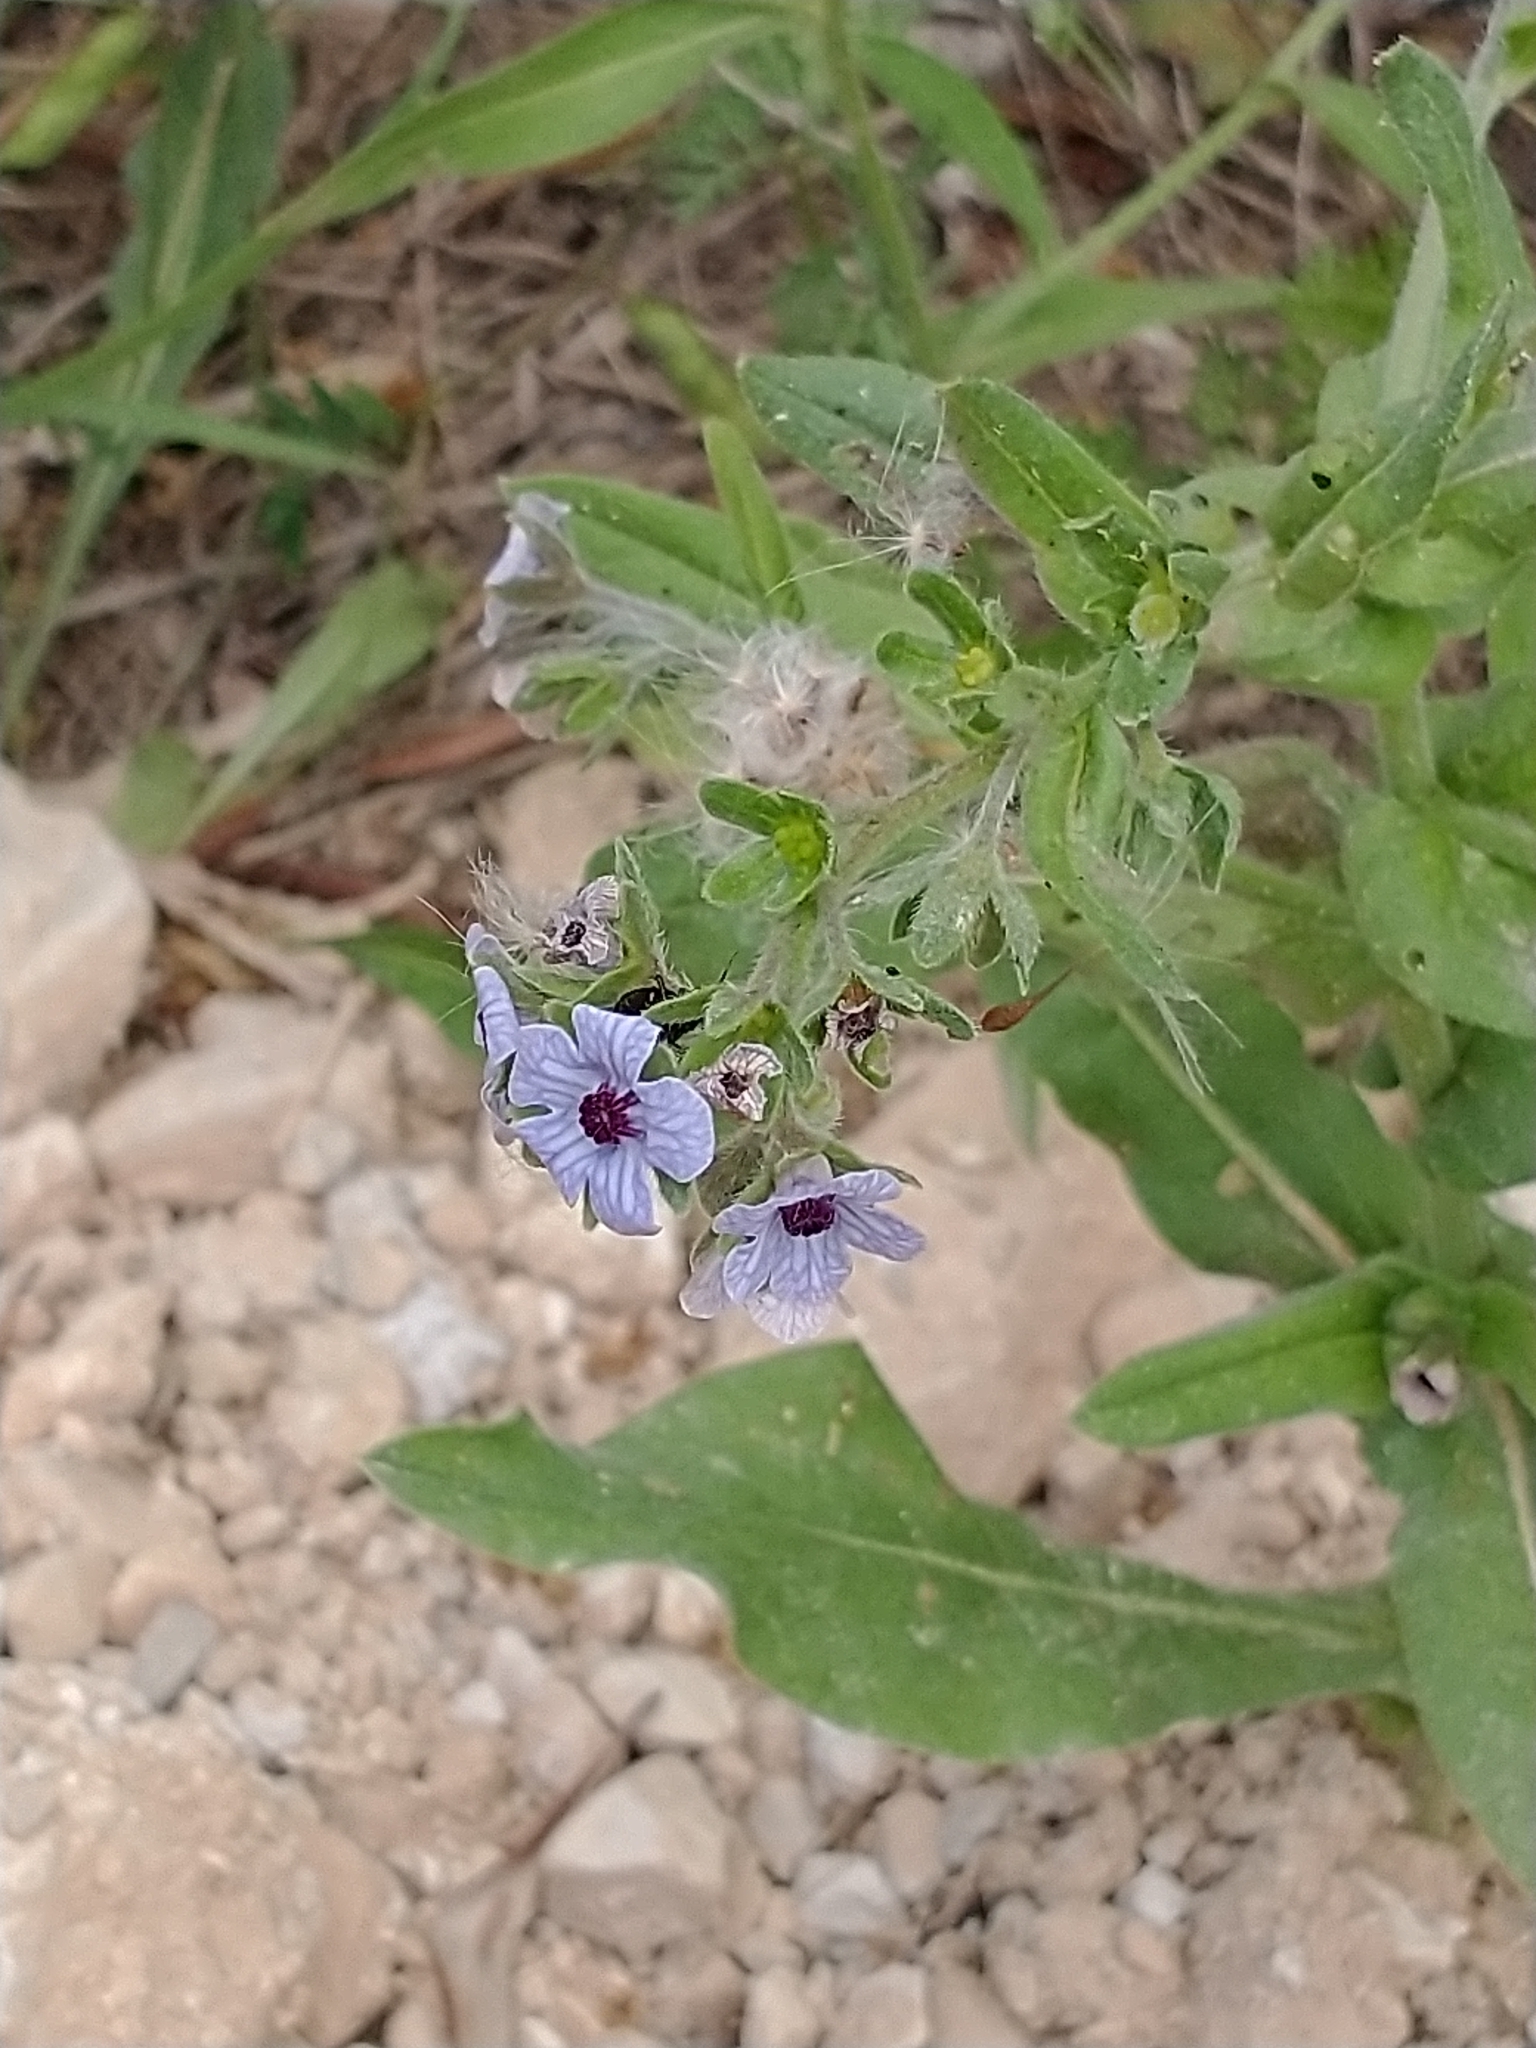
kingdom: Plantae
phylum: Tracheophyta
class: Magnoliopsida
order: Boraginales
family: Boraginaceae
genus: Cynoglossum
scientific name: Cynoglossum creticum
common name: Blue hound's tongue
